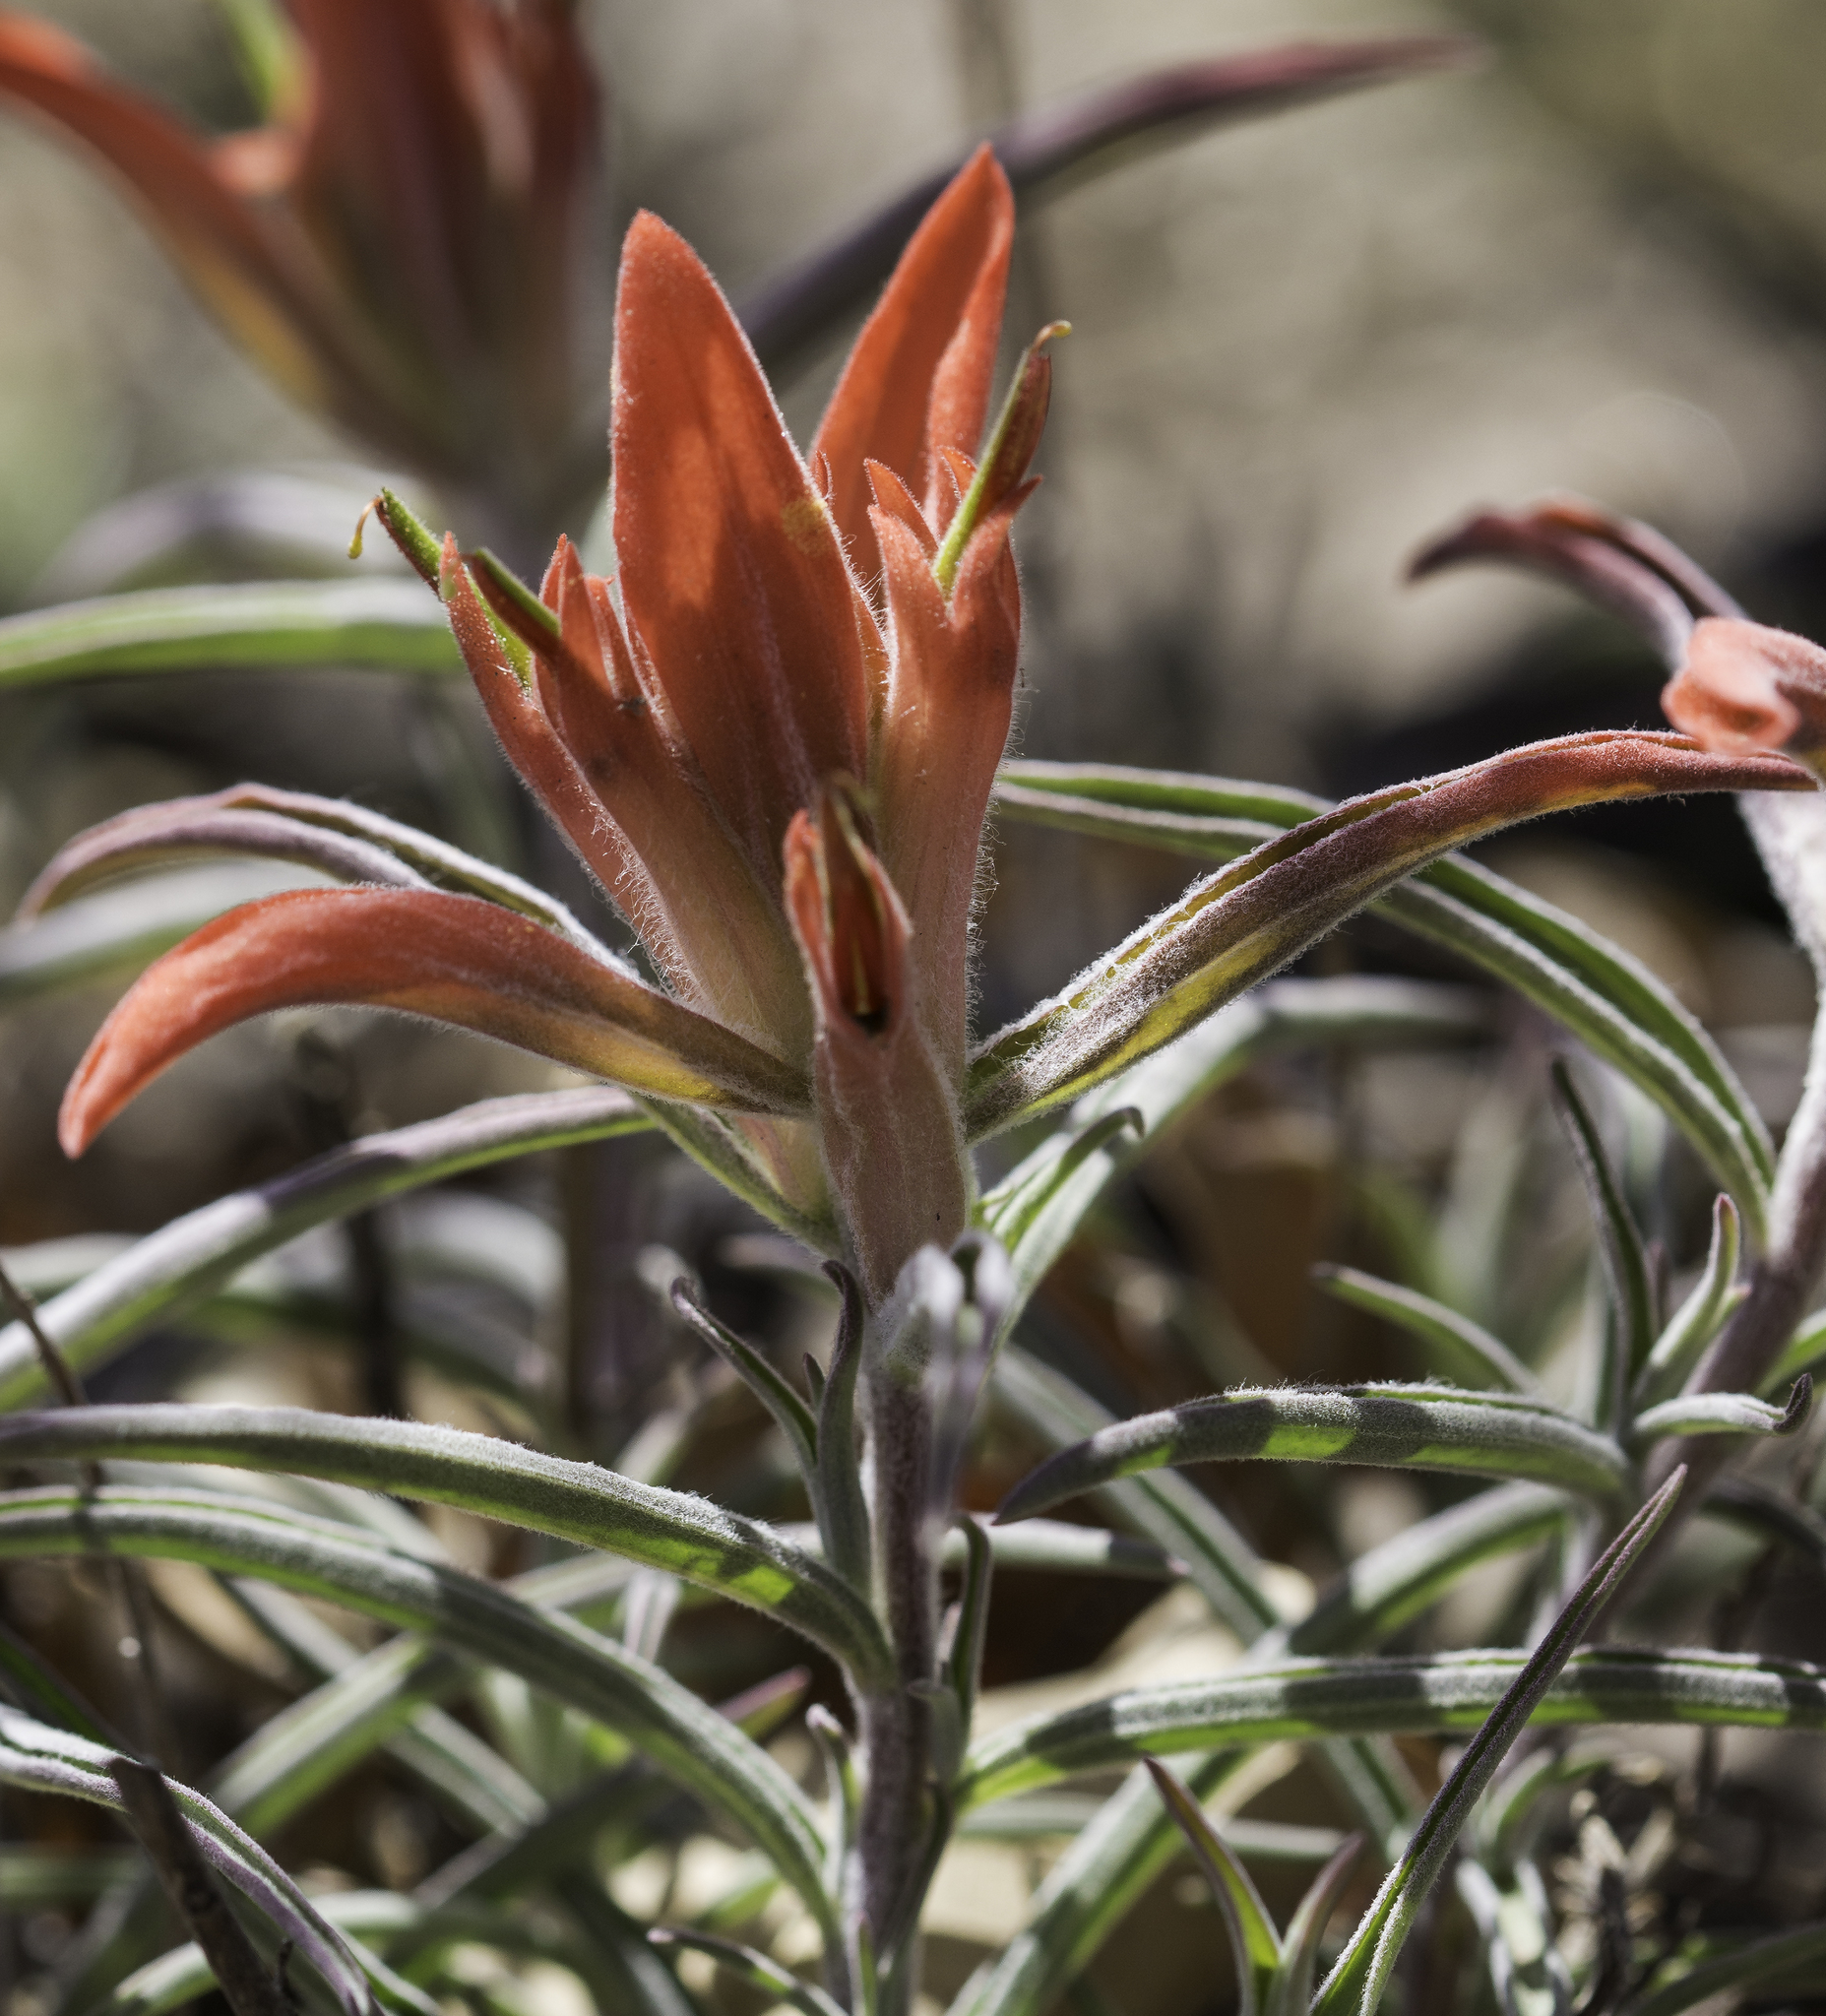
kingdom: Plantae
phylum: Tracheophyta
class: Magnoliopsida
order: Lamiales
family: Orobanchaceae
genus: Castilleja
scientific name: Castilleja integra
